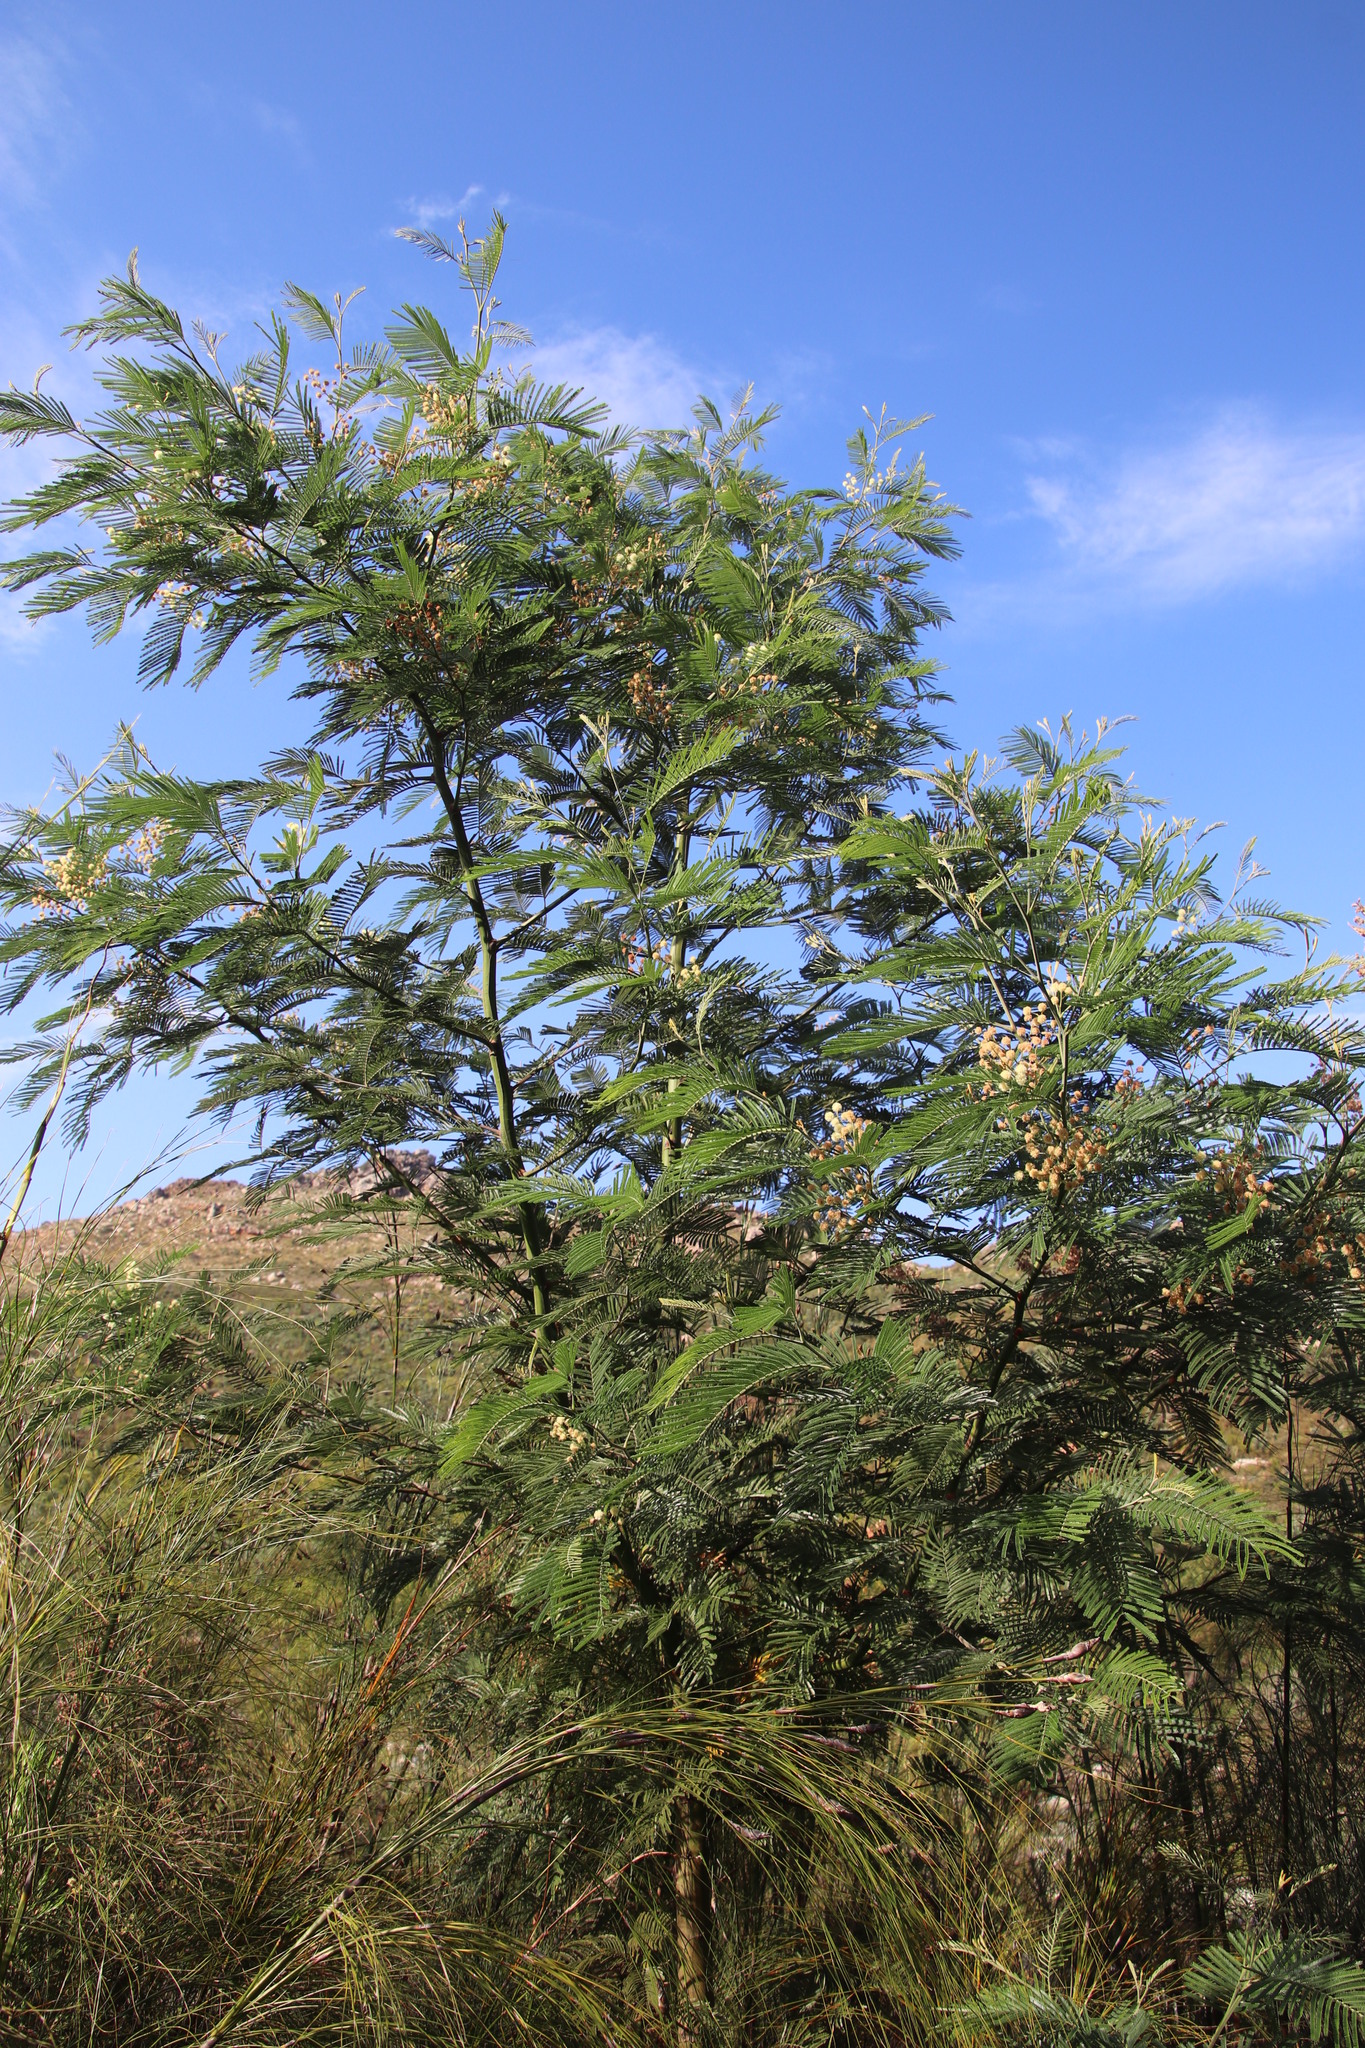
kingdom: Plantae
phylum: Tracheophyta
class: Magnoliopsida
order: Fabales
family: Fabaceae
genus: Acacia
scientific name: Acacia mearnsii
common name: Black wattle
